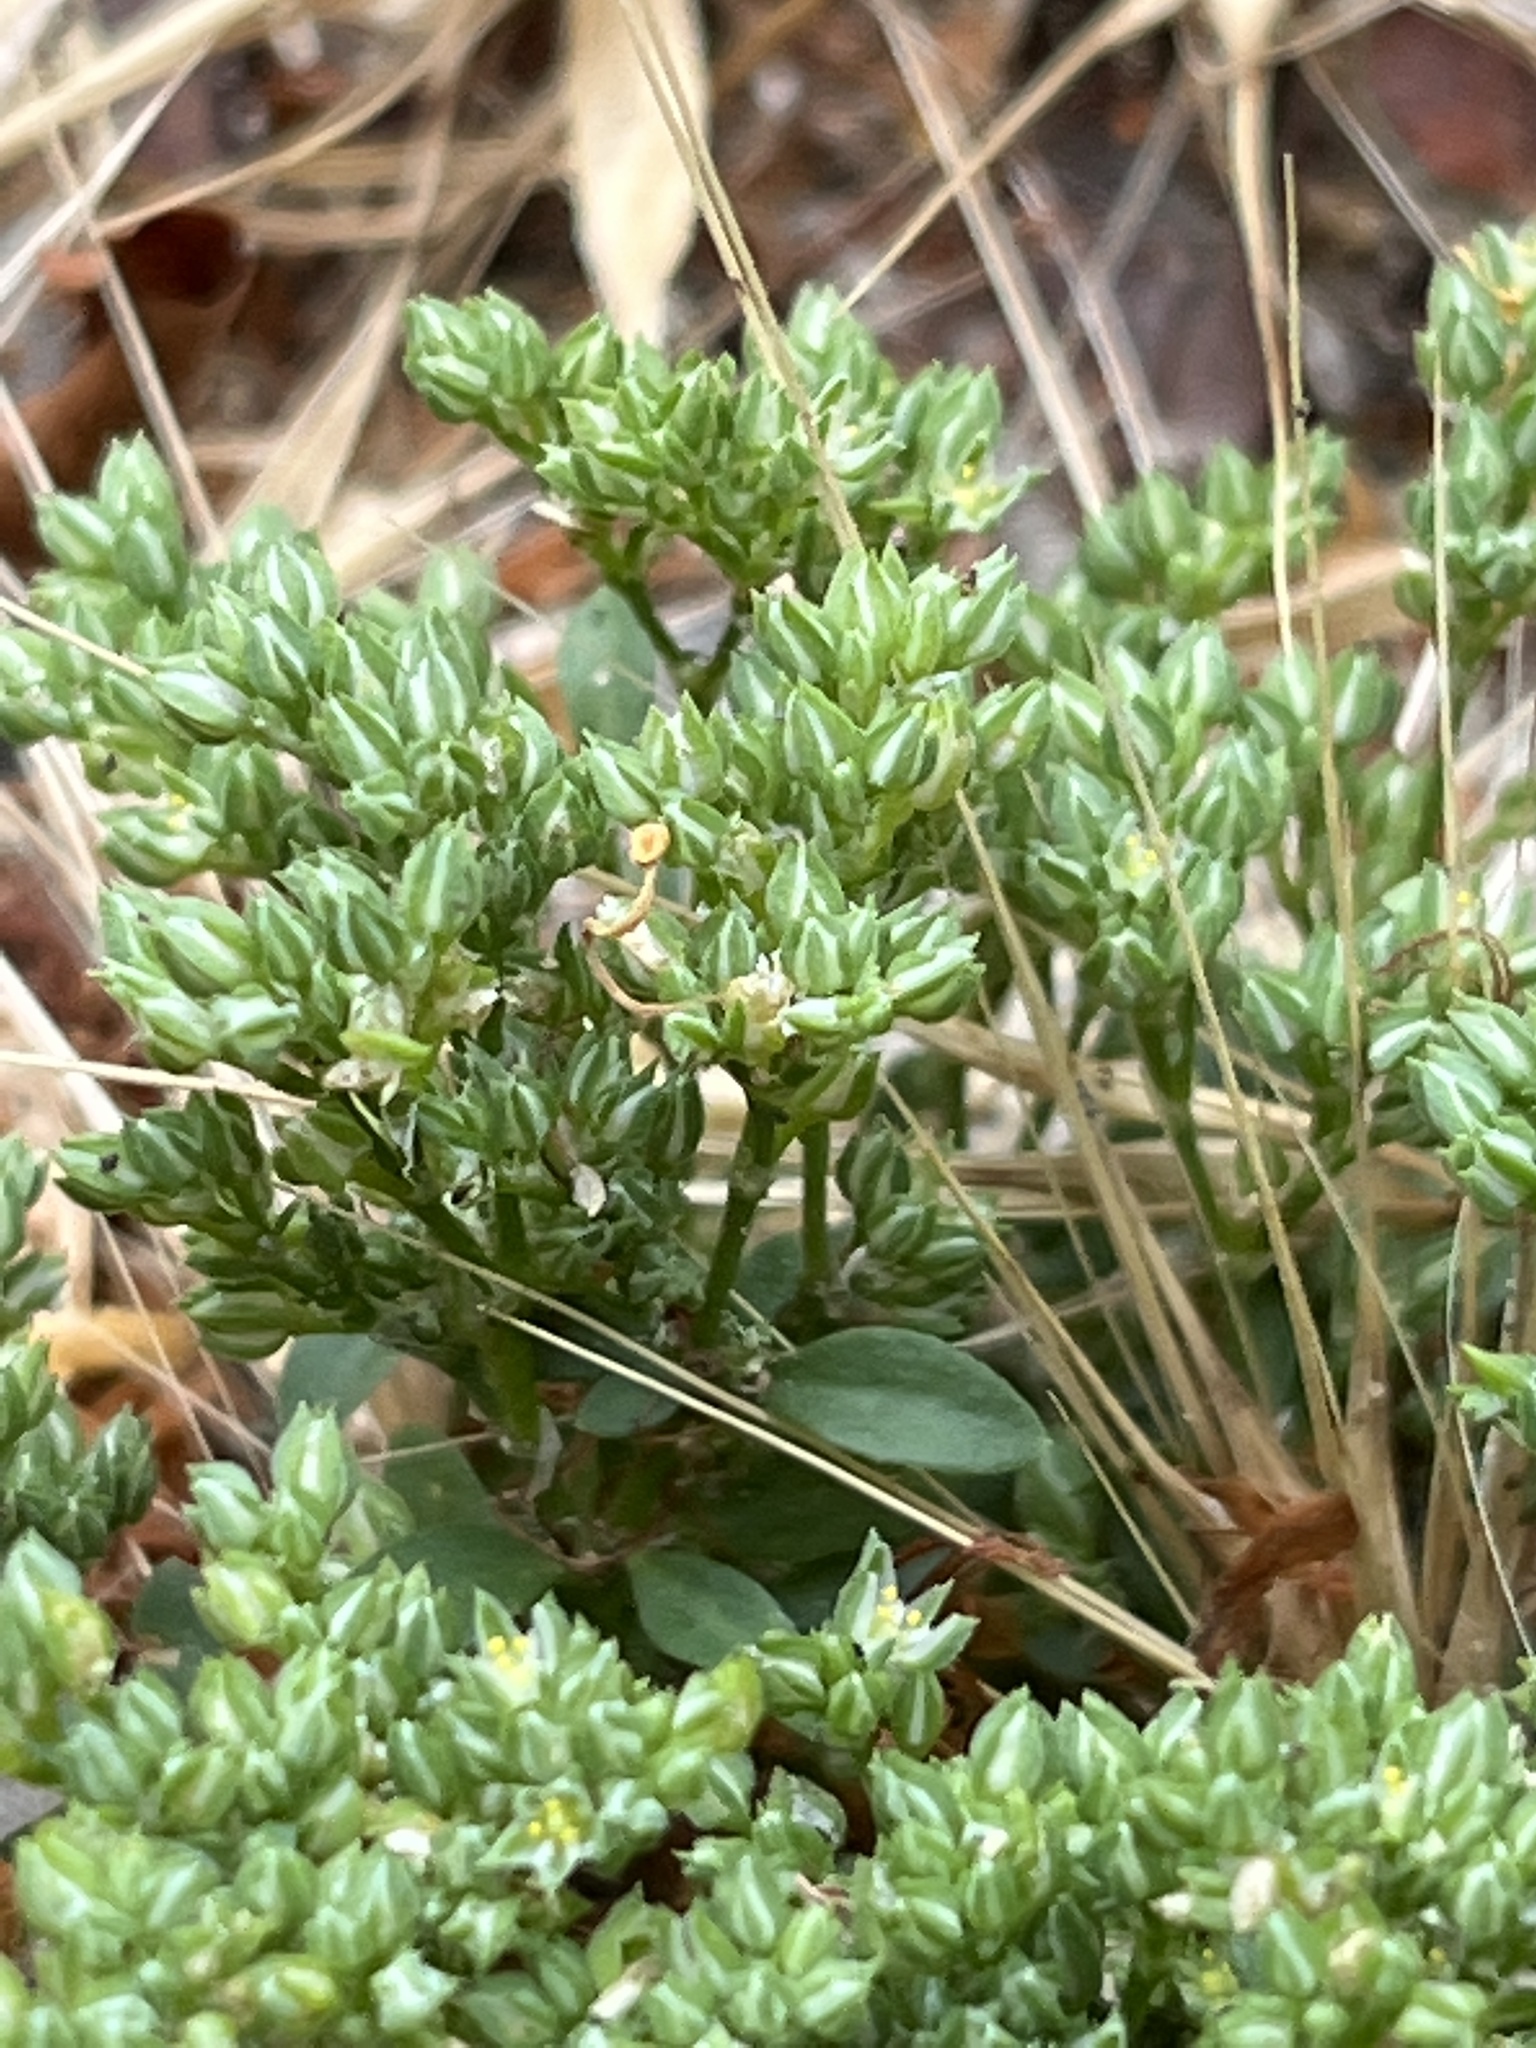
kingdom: Plantae
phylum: Tracheophyta
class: Magnoliopsida
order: Caryophyllales
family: Caryophyllaceae
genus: Polycarpon
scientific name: Polycarpon tetraphyllum
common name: Four-leaved all-seed
